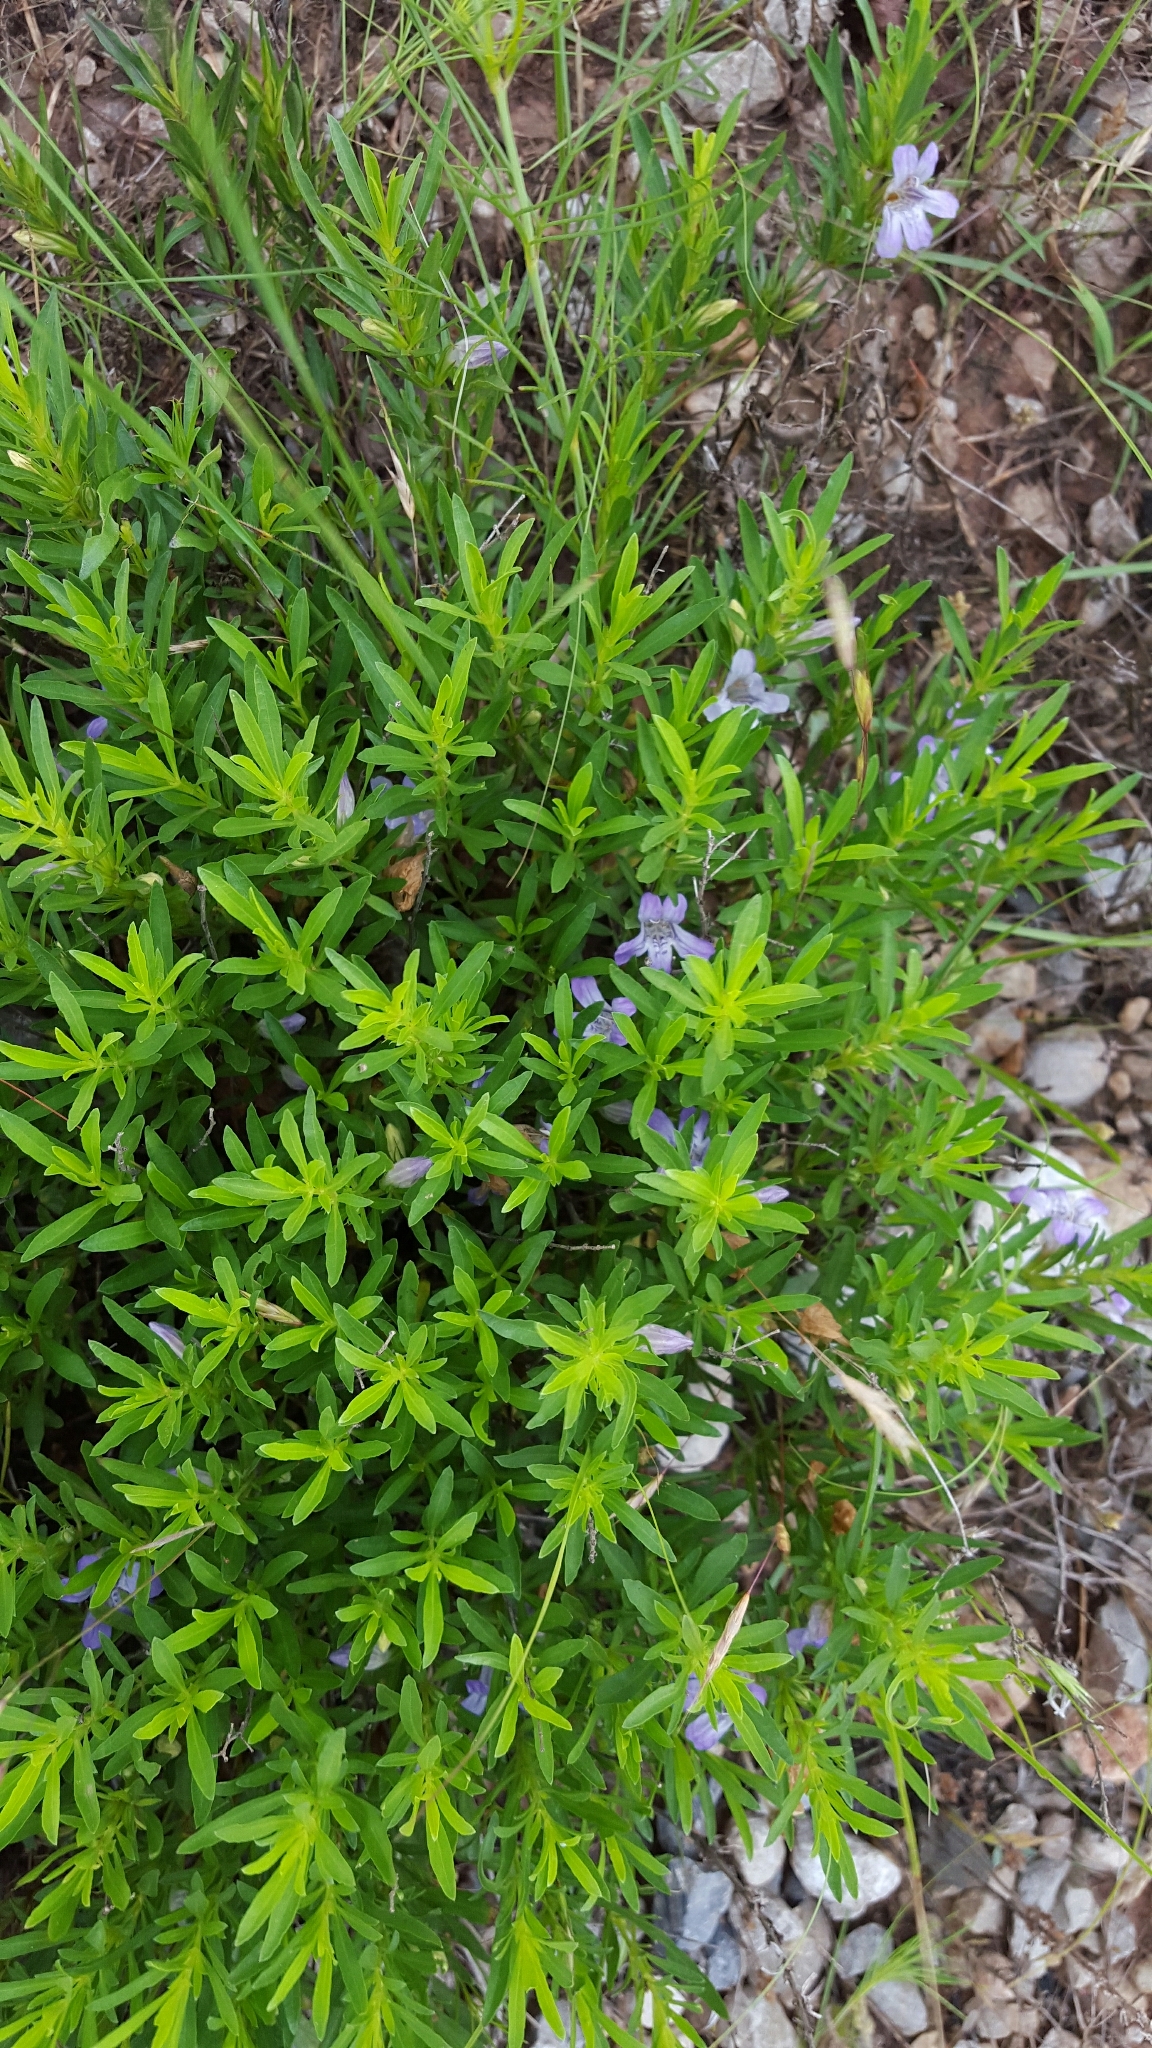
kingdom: Plantae
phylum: Tracheophyta
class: Magnoliopsida
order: Lamiales
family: Acanthaceae
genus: Dyschoriste
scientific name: Dyschoriste linearis
